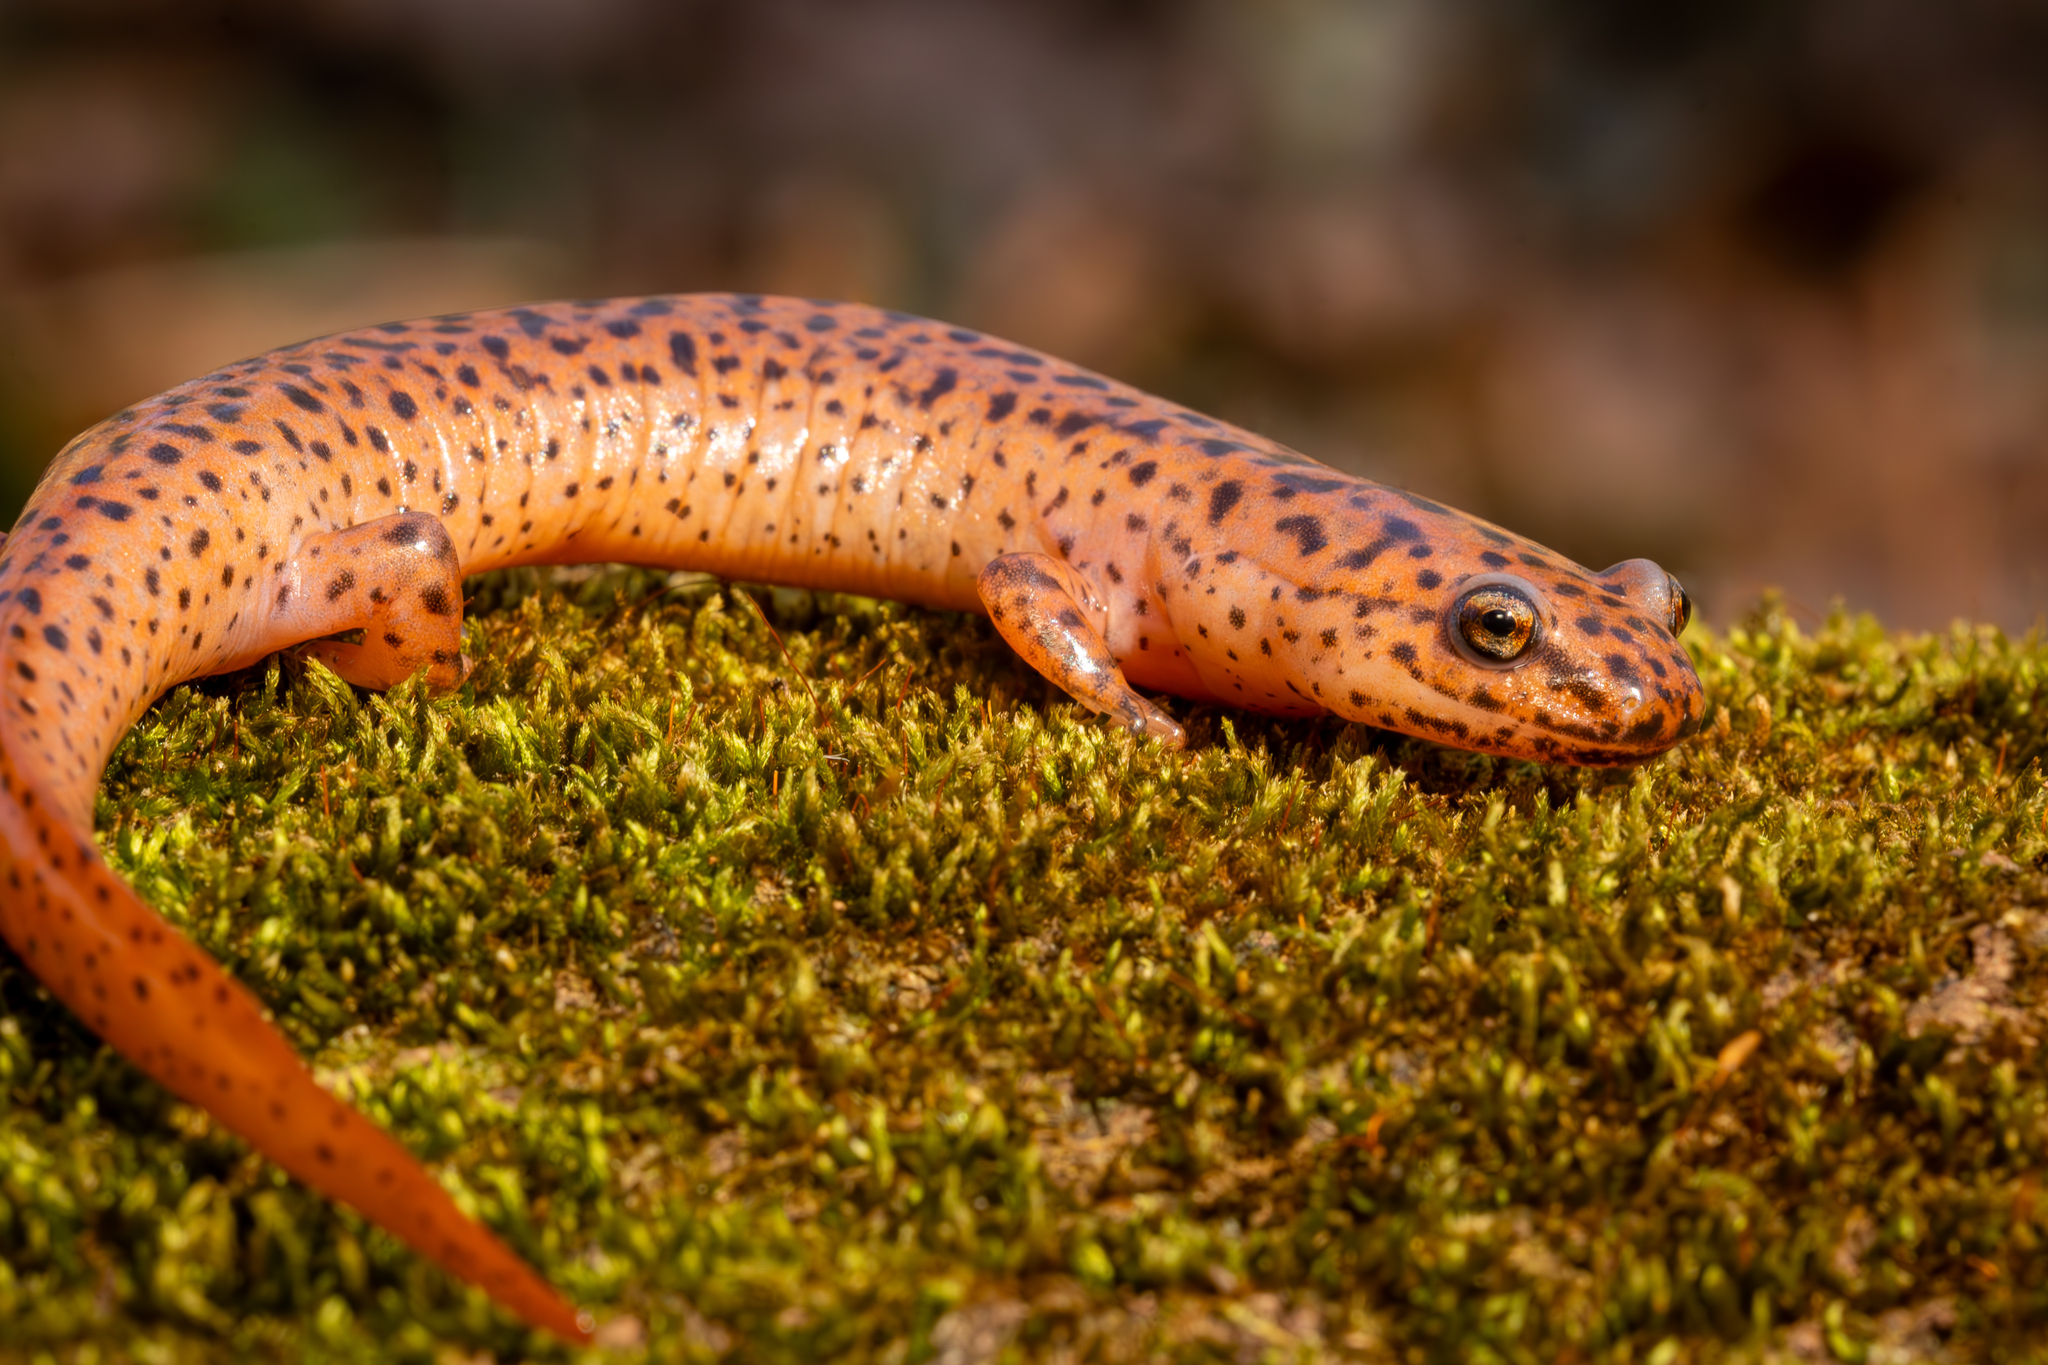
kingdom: Animalia
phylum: Chordata
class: Amphibia
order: Caudata
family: Plethodontidae
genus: Pseudotriton
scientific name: Pseudotriton ruber
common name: Red salamander
